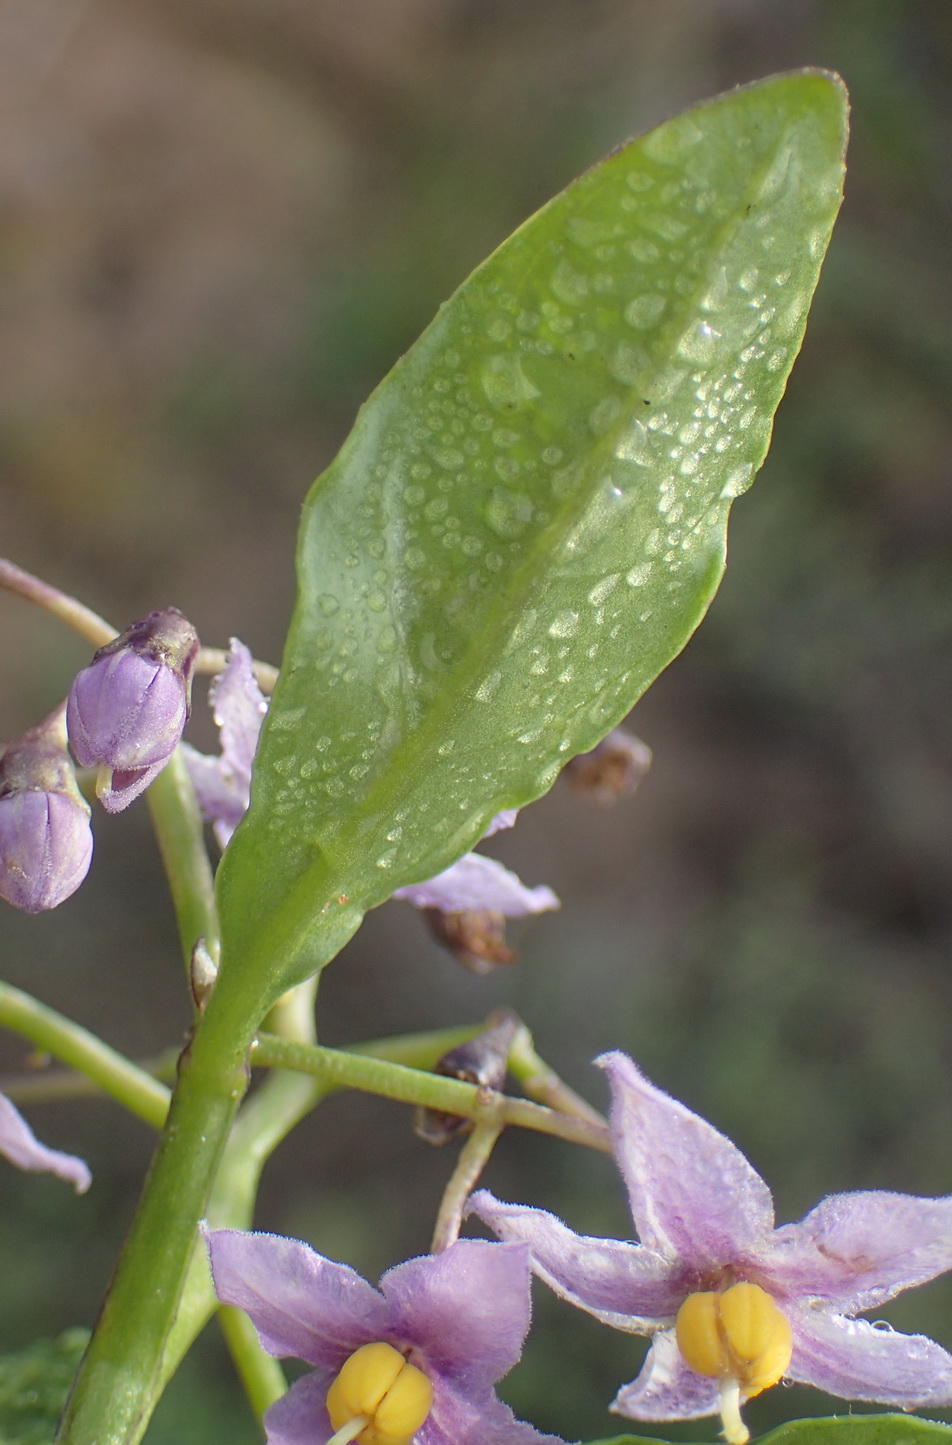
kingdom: Plantae
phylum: Tracheophyta
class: Magnoliopsida
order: Solanales
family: Solanaceae
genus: Solanum
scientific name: Solanum africanum
